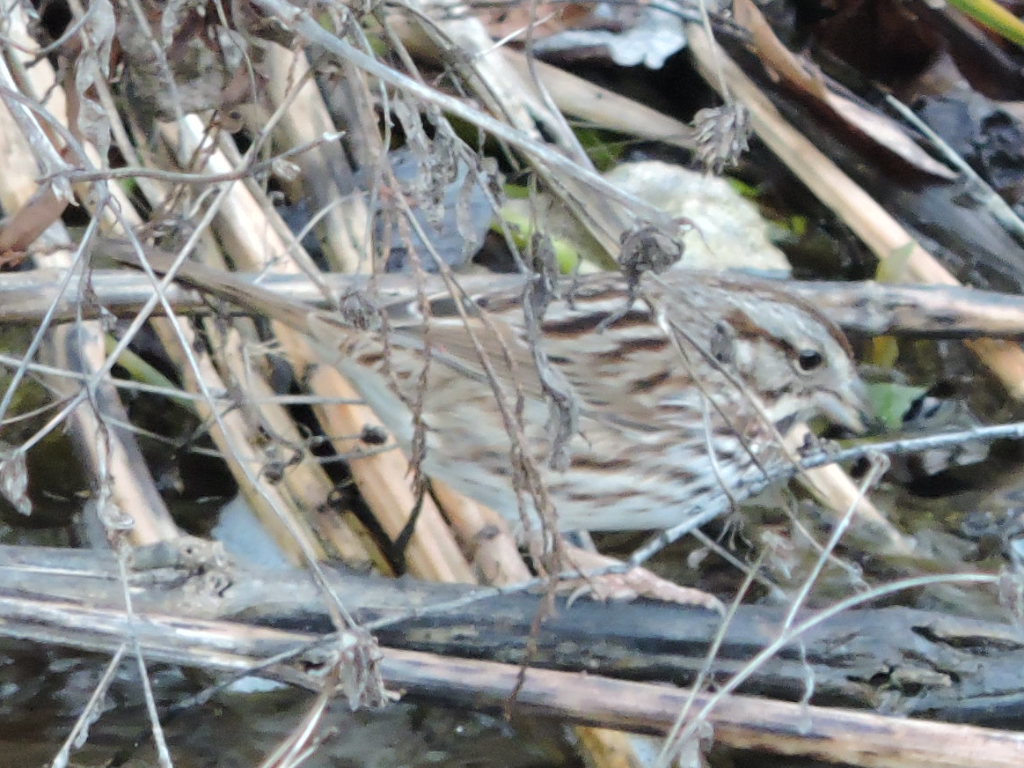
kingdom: Animalia
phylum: Chordata
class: Aves
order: Passeriformes
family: Passerellidae
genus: Melospiza
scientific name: Melospiza melodia
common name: Song sparrow
